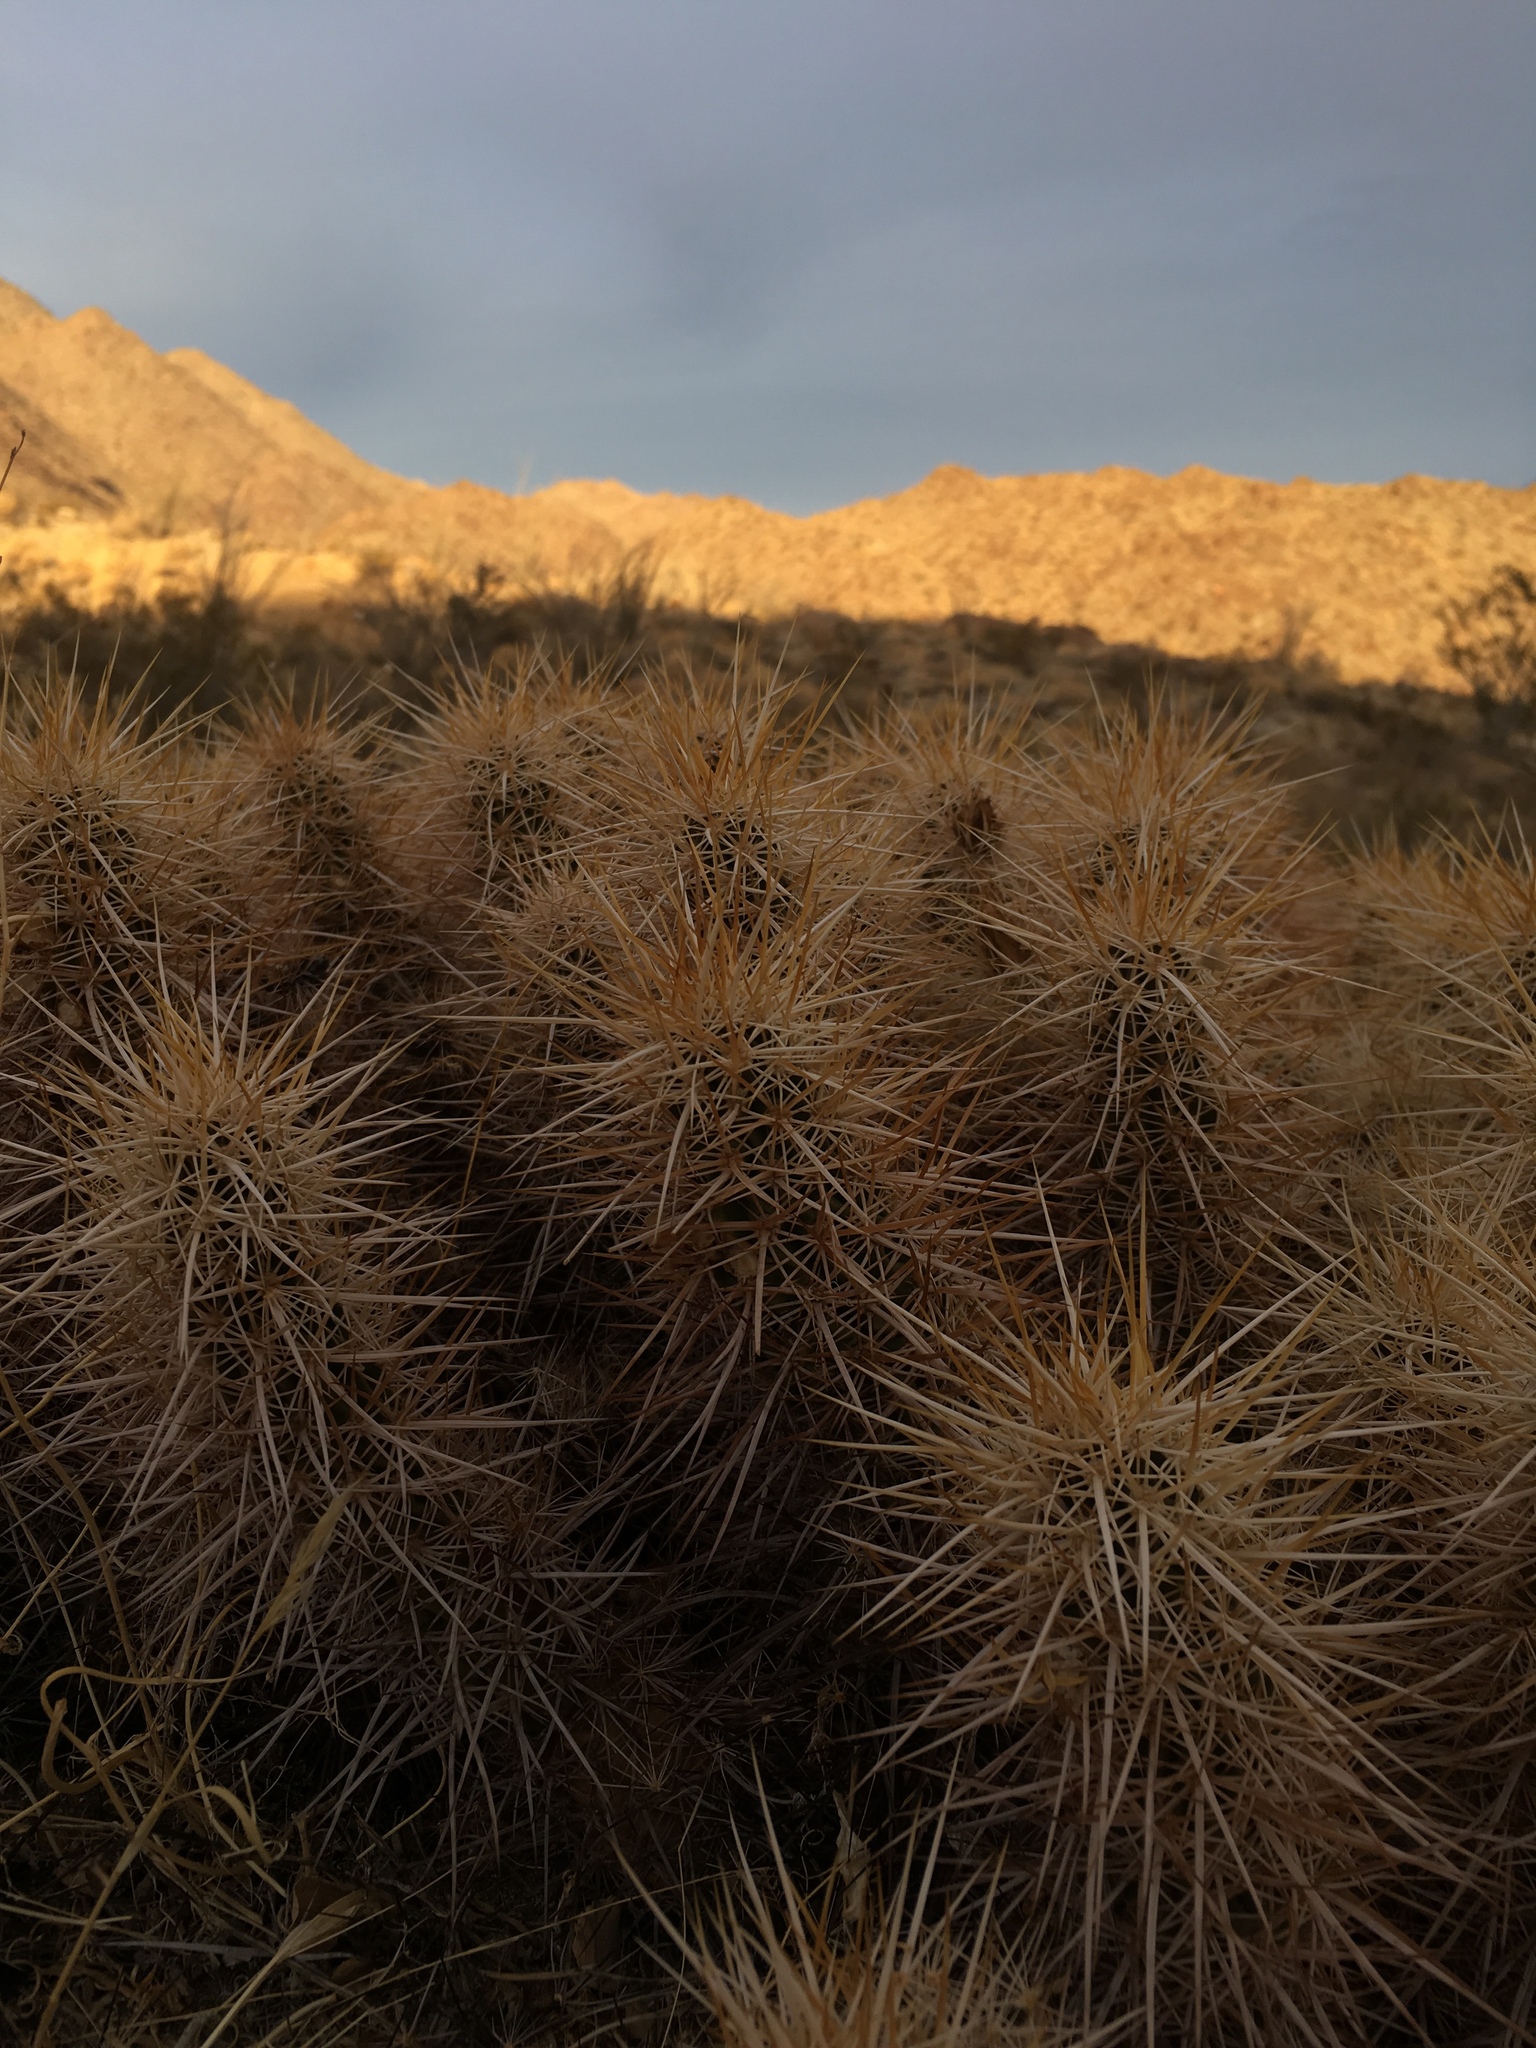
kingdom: Plantae
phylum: Tracheophyta
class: Magnoliopsida
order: Caryophyllales
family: Cactaceae
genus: Echinocereus
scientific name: Echinocereus engelmannii
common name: Engelmann's hedgehog cactus
